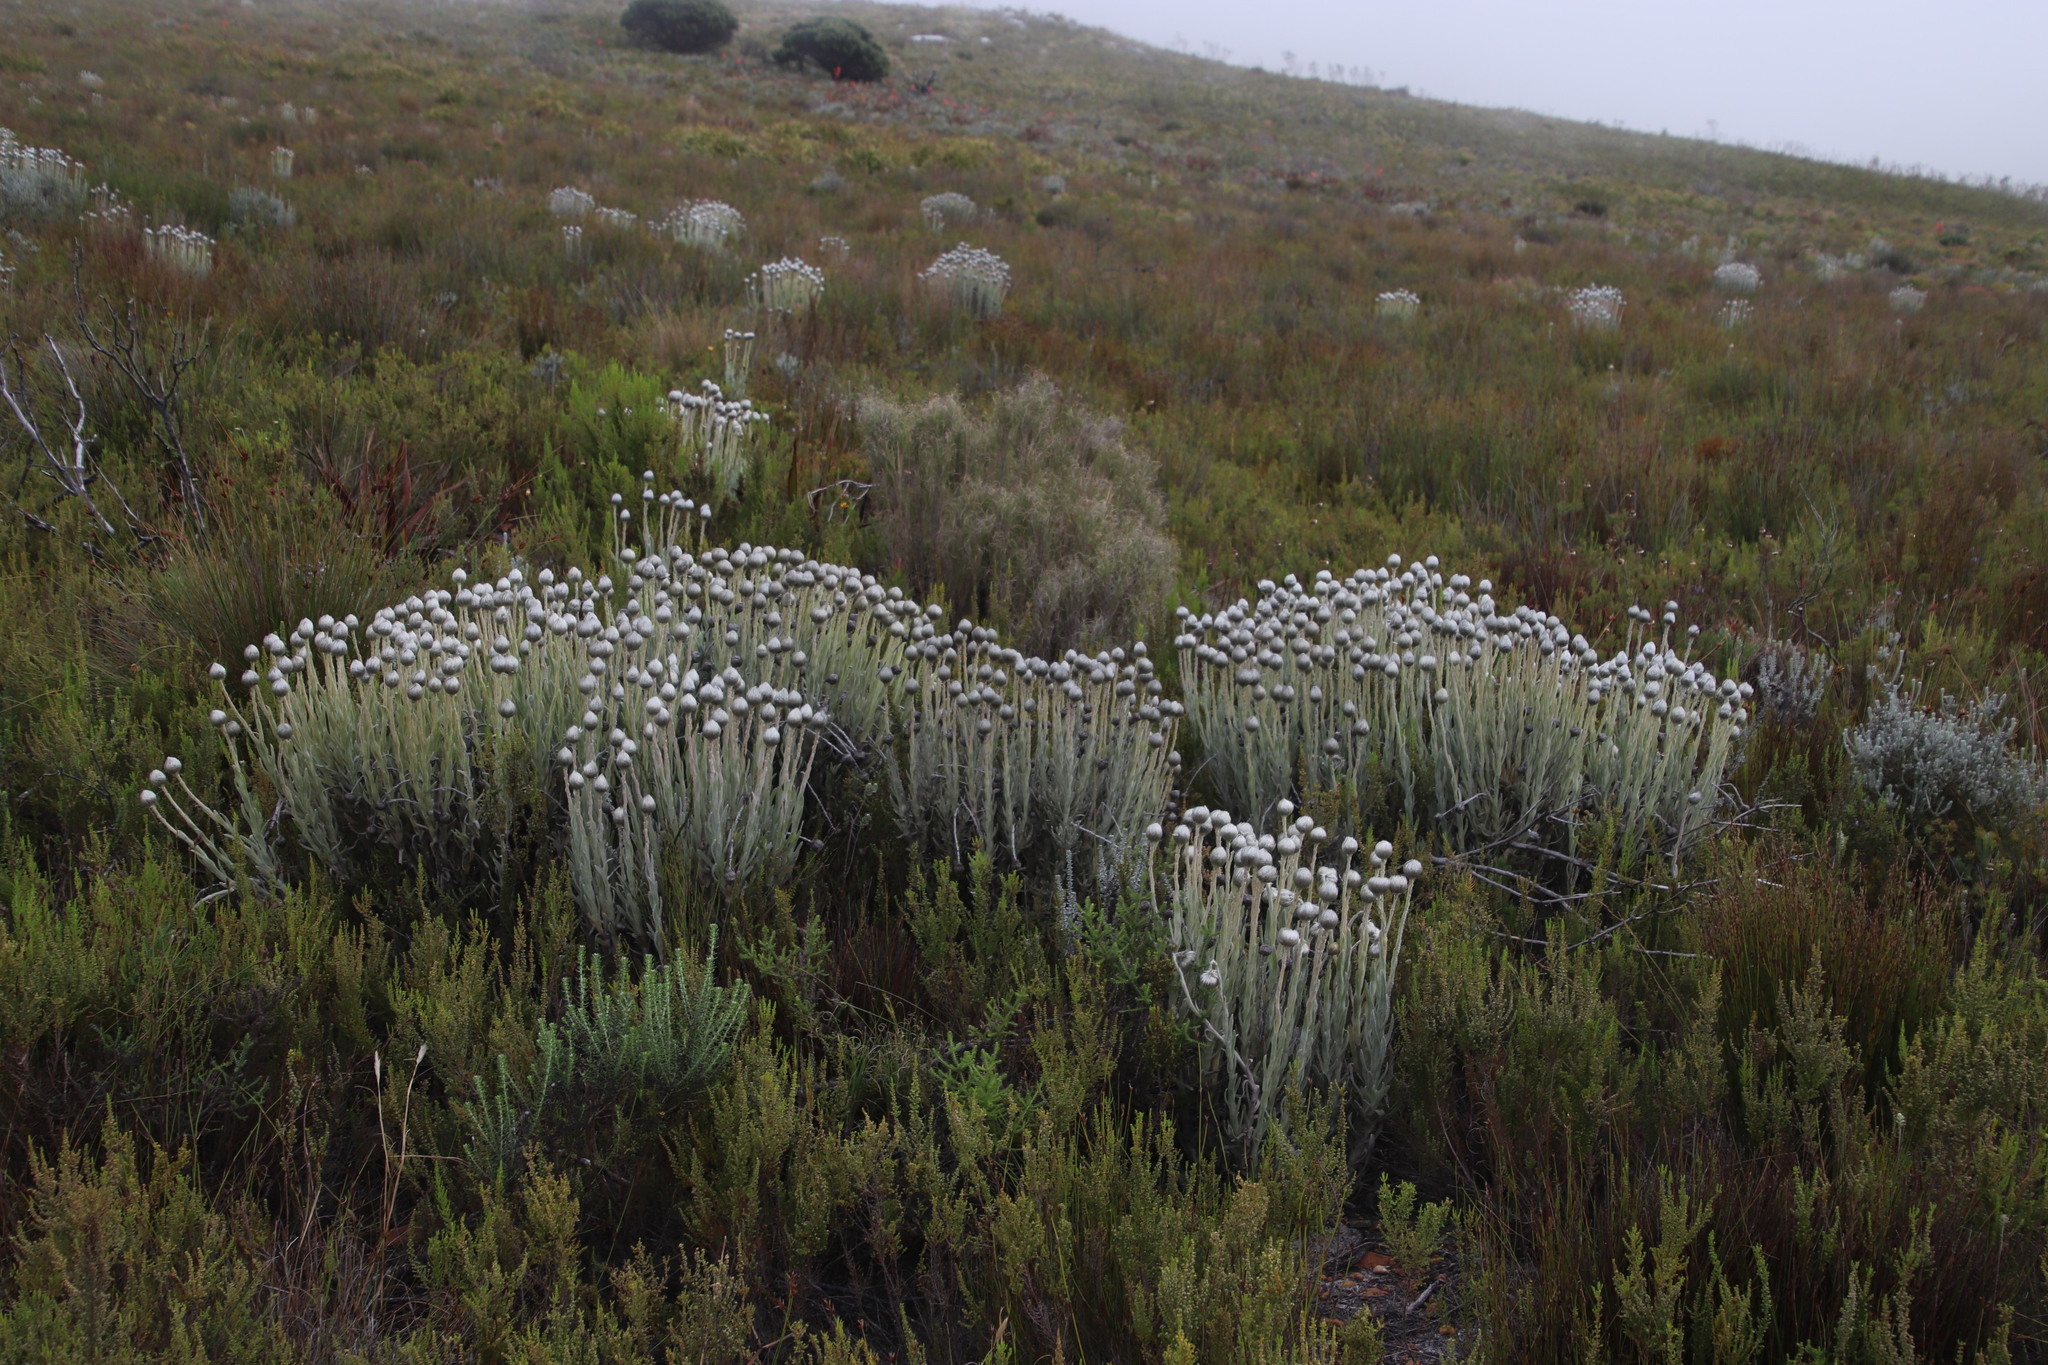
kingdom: Plantae
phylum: Tracheophyta
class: Magnoliopsida
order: Asterales
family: Asteraceae
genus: Syncarpha
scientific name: Syncarpha vestita
